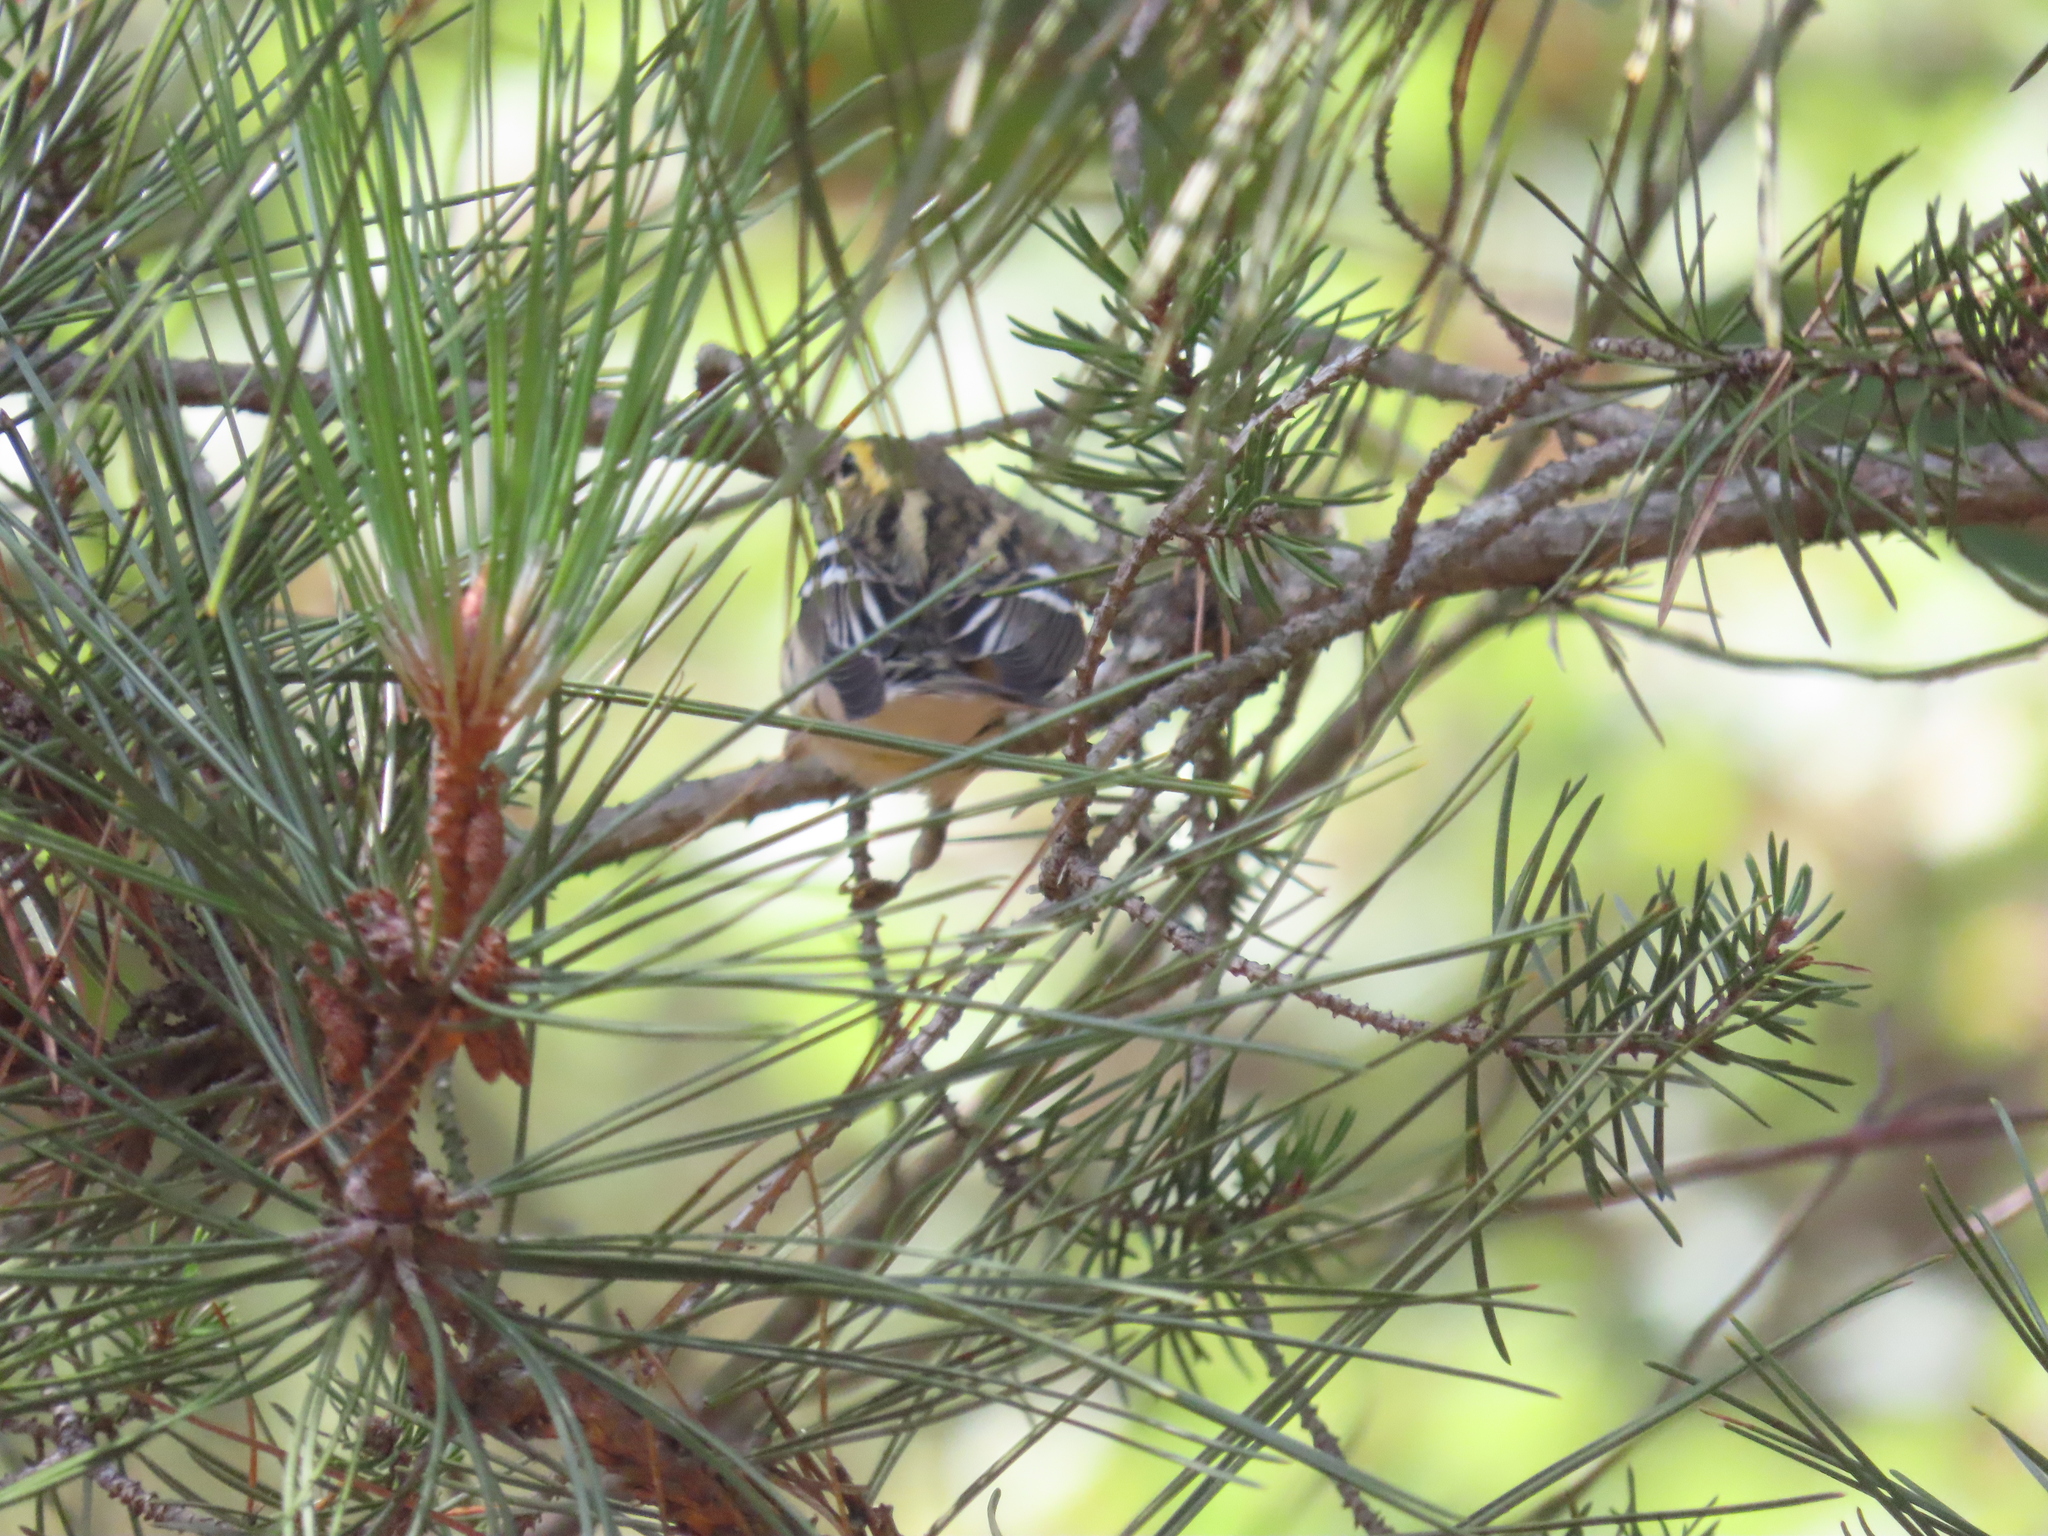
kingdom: Animalia
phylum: Chordata
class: Aves
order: Passeriformes
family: Parulidae
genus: Setophaga
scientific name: Setophaga fusca
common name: Blackburnian warbler
